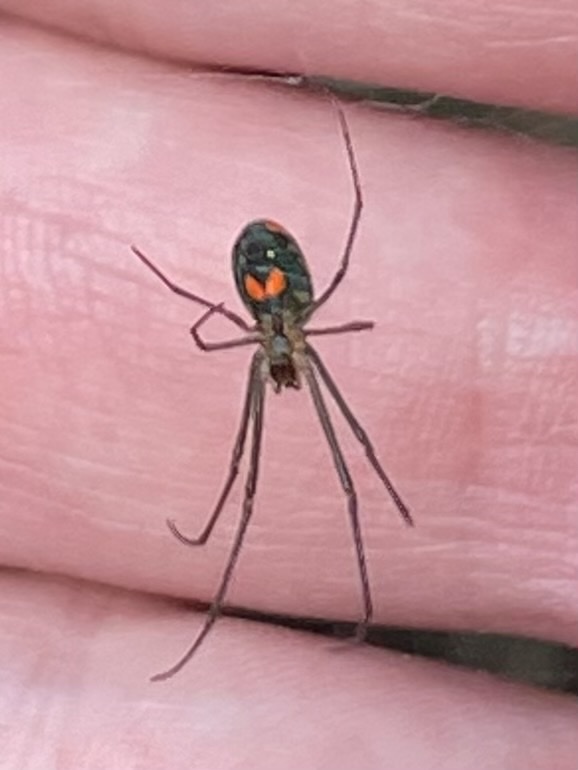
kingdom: Animalia
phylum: Arthropoda
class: Arachnida
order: Araneae
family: Tetragnathidae
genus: Leucauge
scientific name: Leucauge argyrobapta
